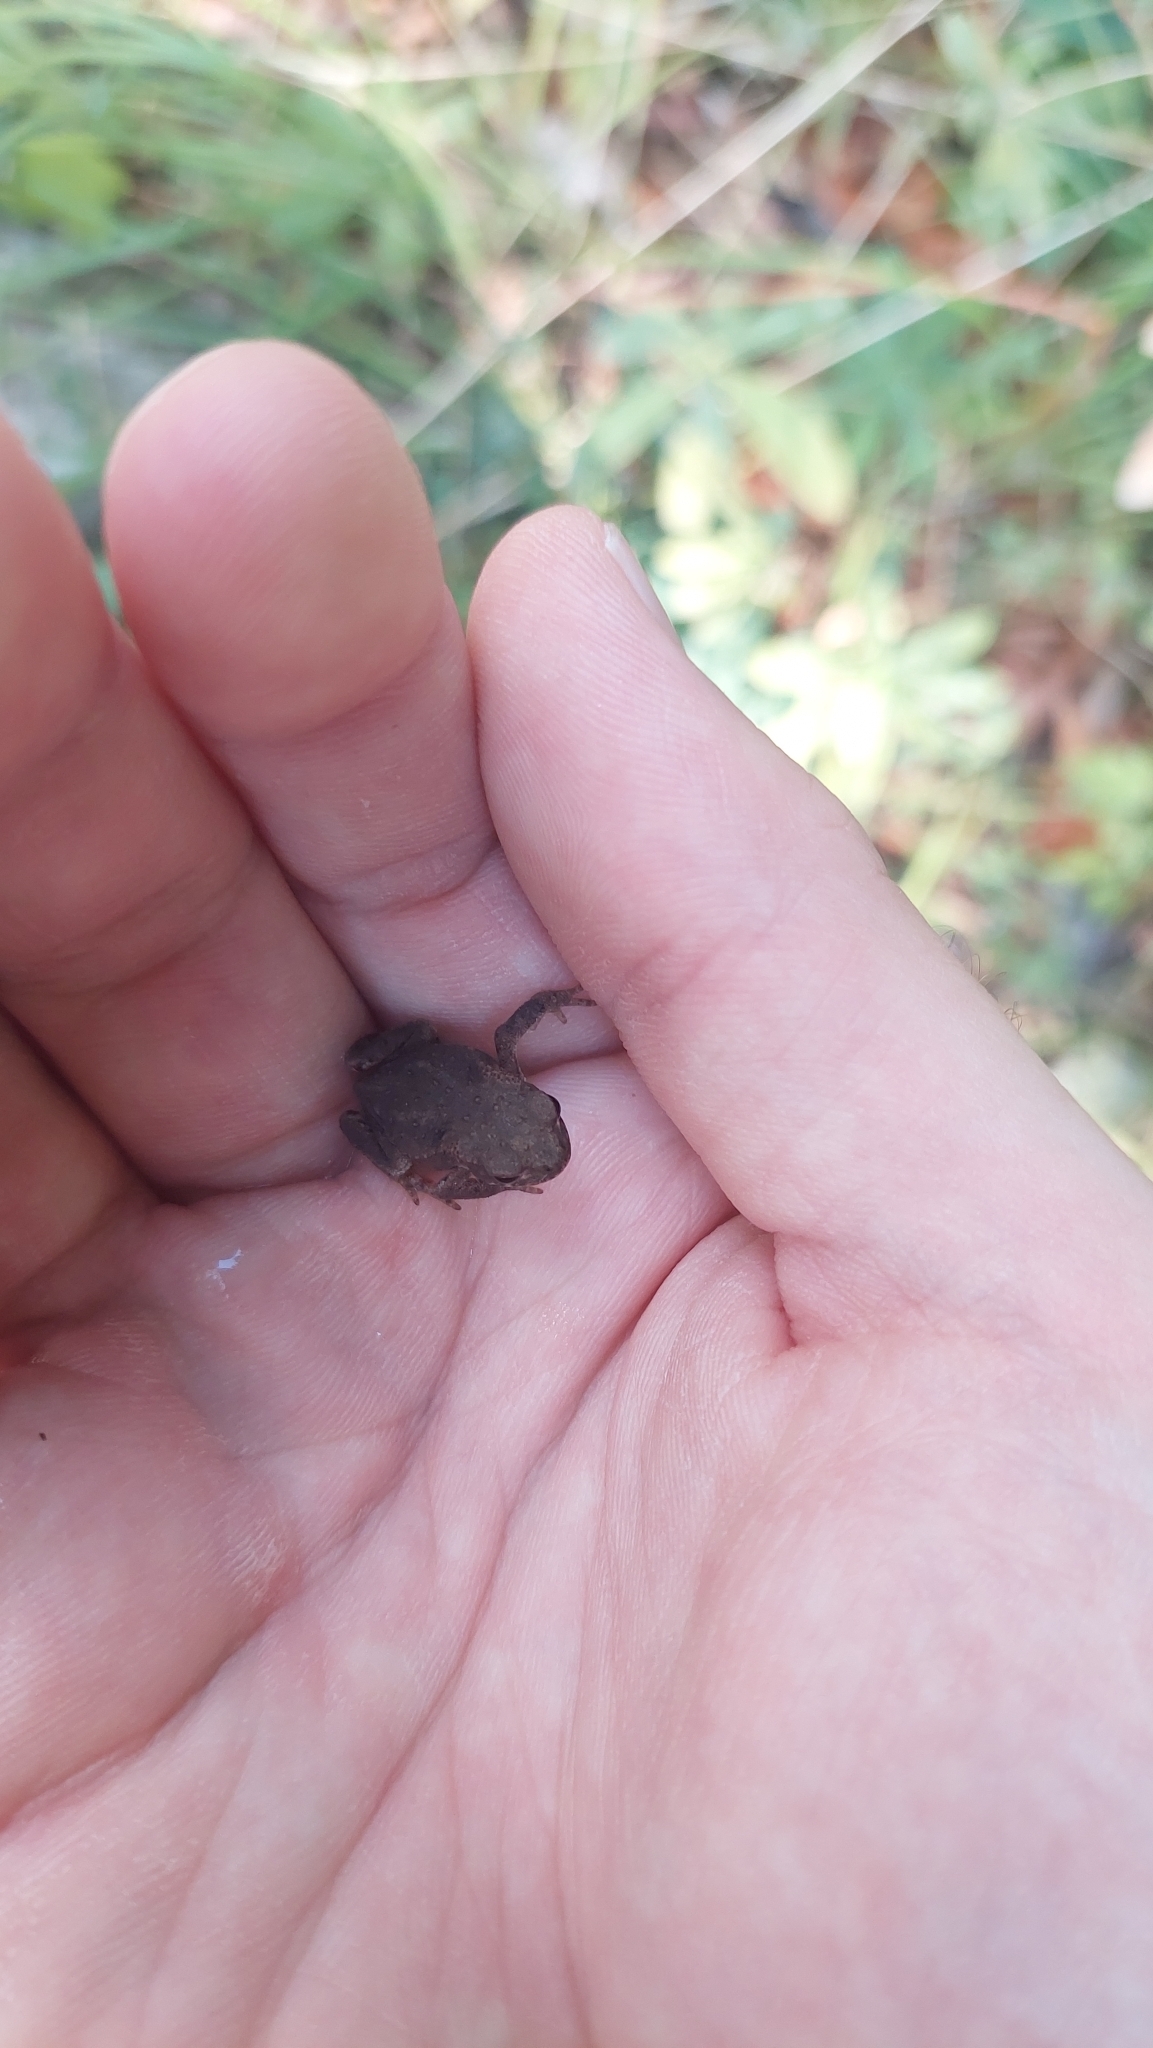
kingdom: Animalia
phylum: Chordata
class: Amphibia
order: Anura
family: Bufonidae
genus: Bufo
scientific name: Bufo bufo
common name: Common toad
